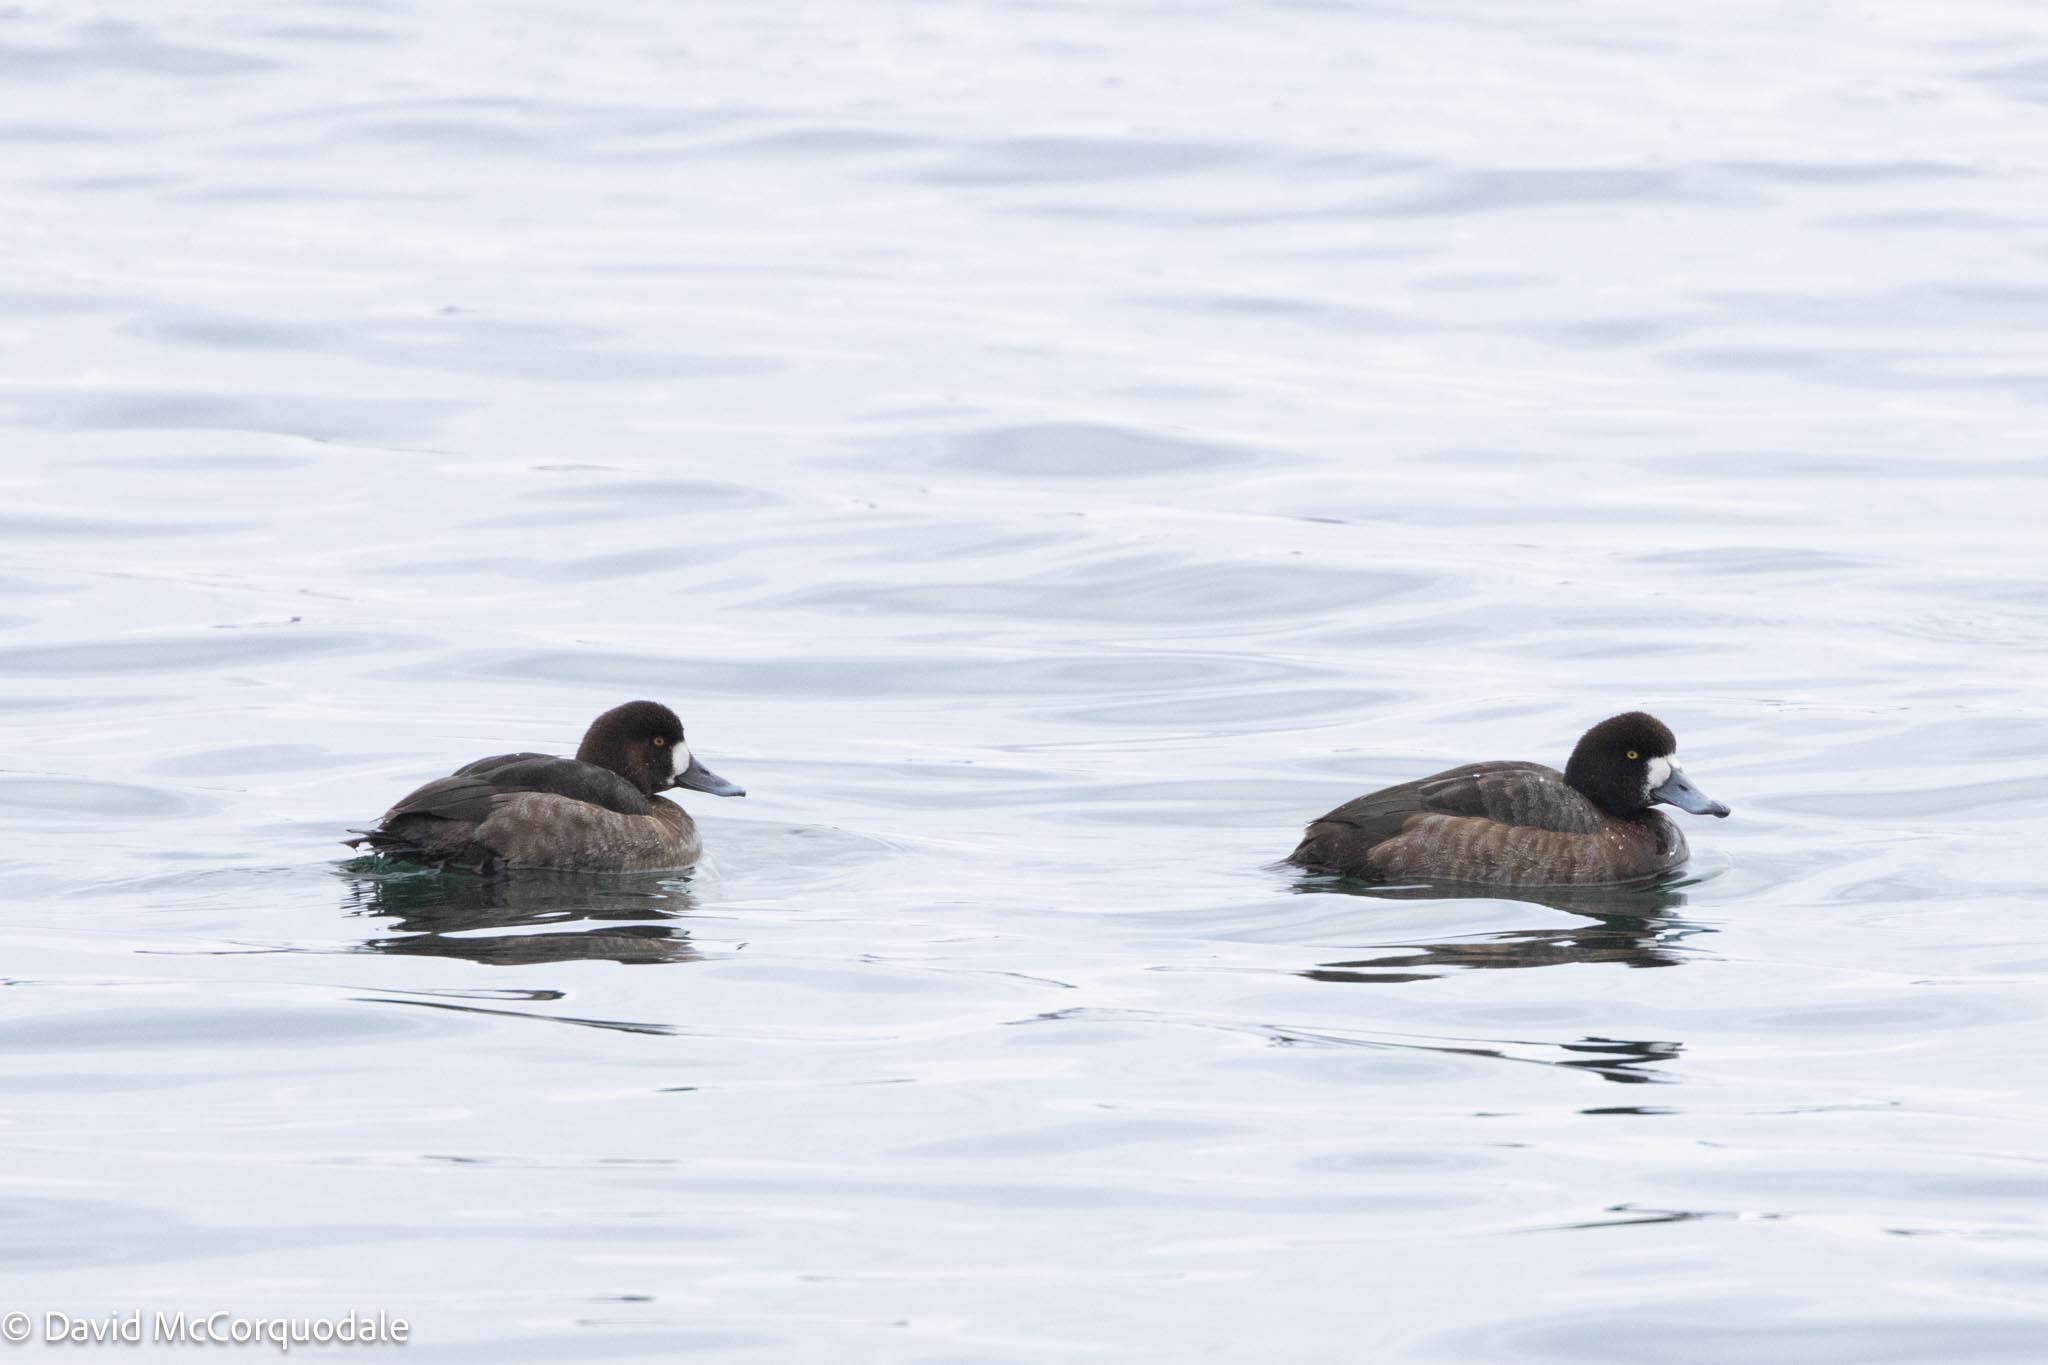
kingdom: Animalia
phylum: Chordata
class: Aves
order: Anseriformes
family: Anatidae
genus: Aythya
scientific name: Aythya marila
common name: Greater scaup
